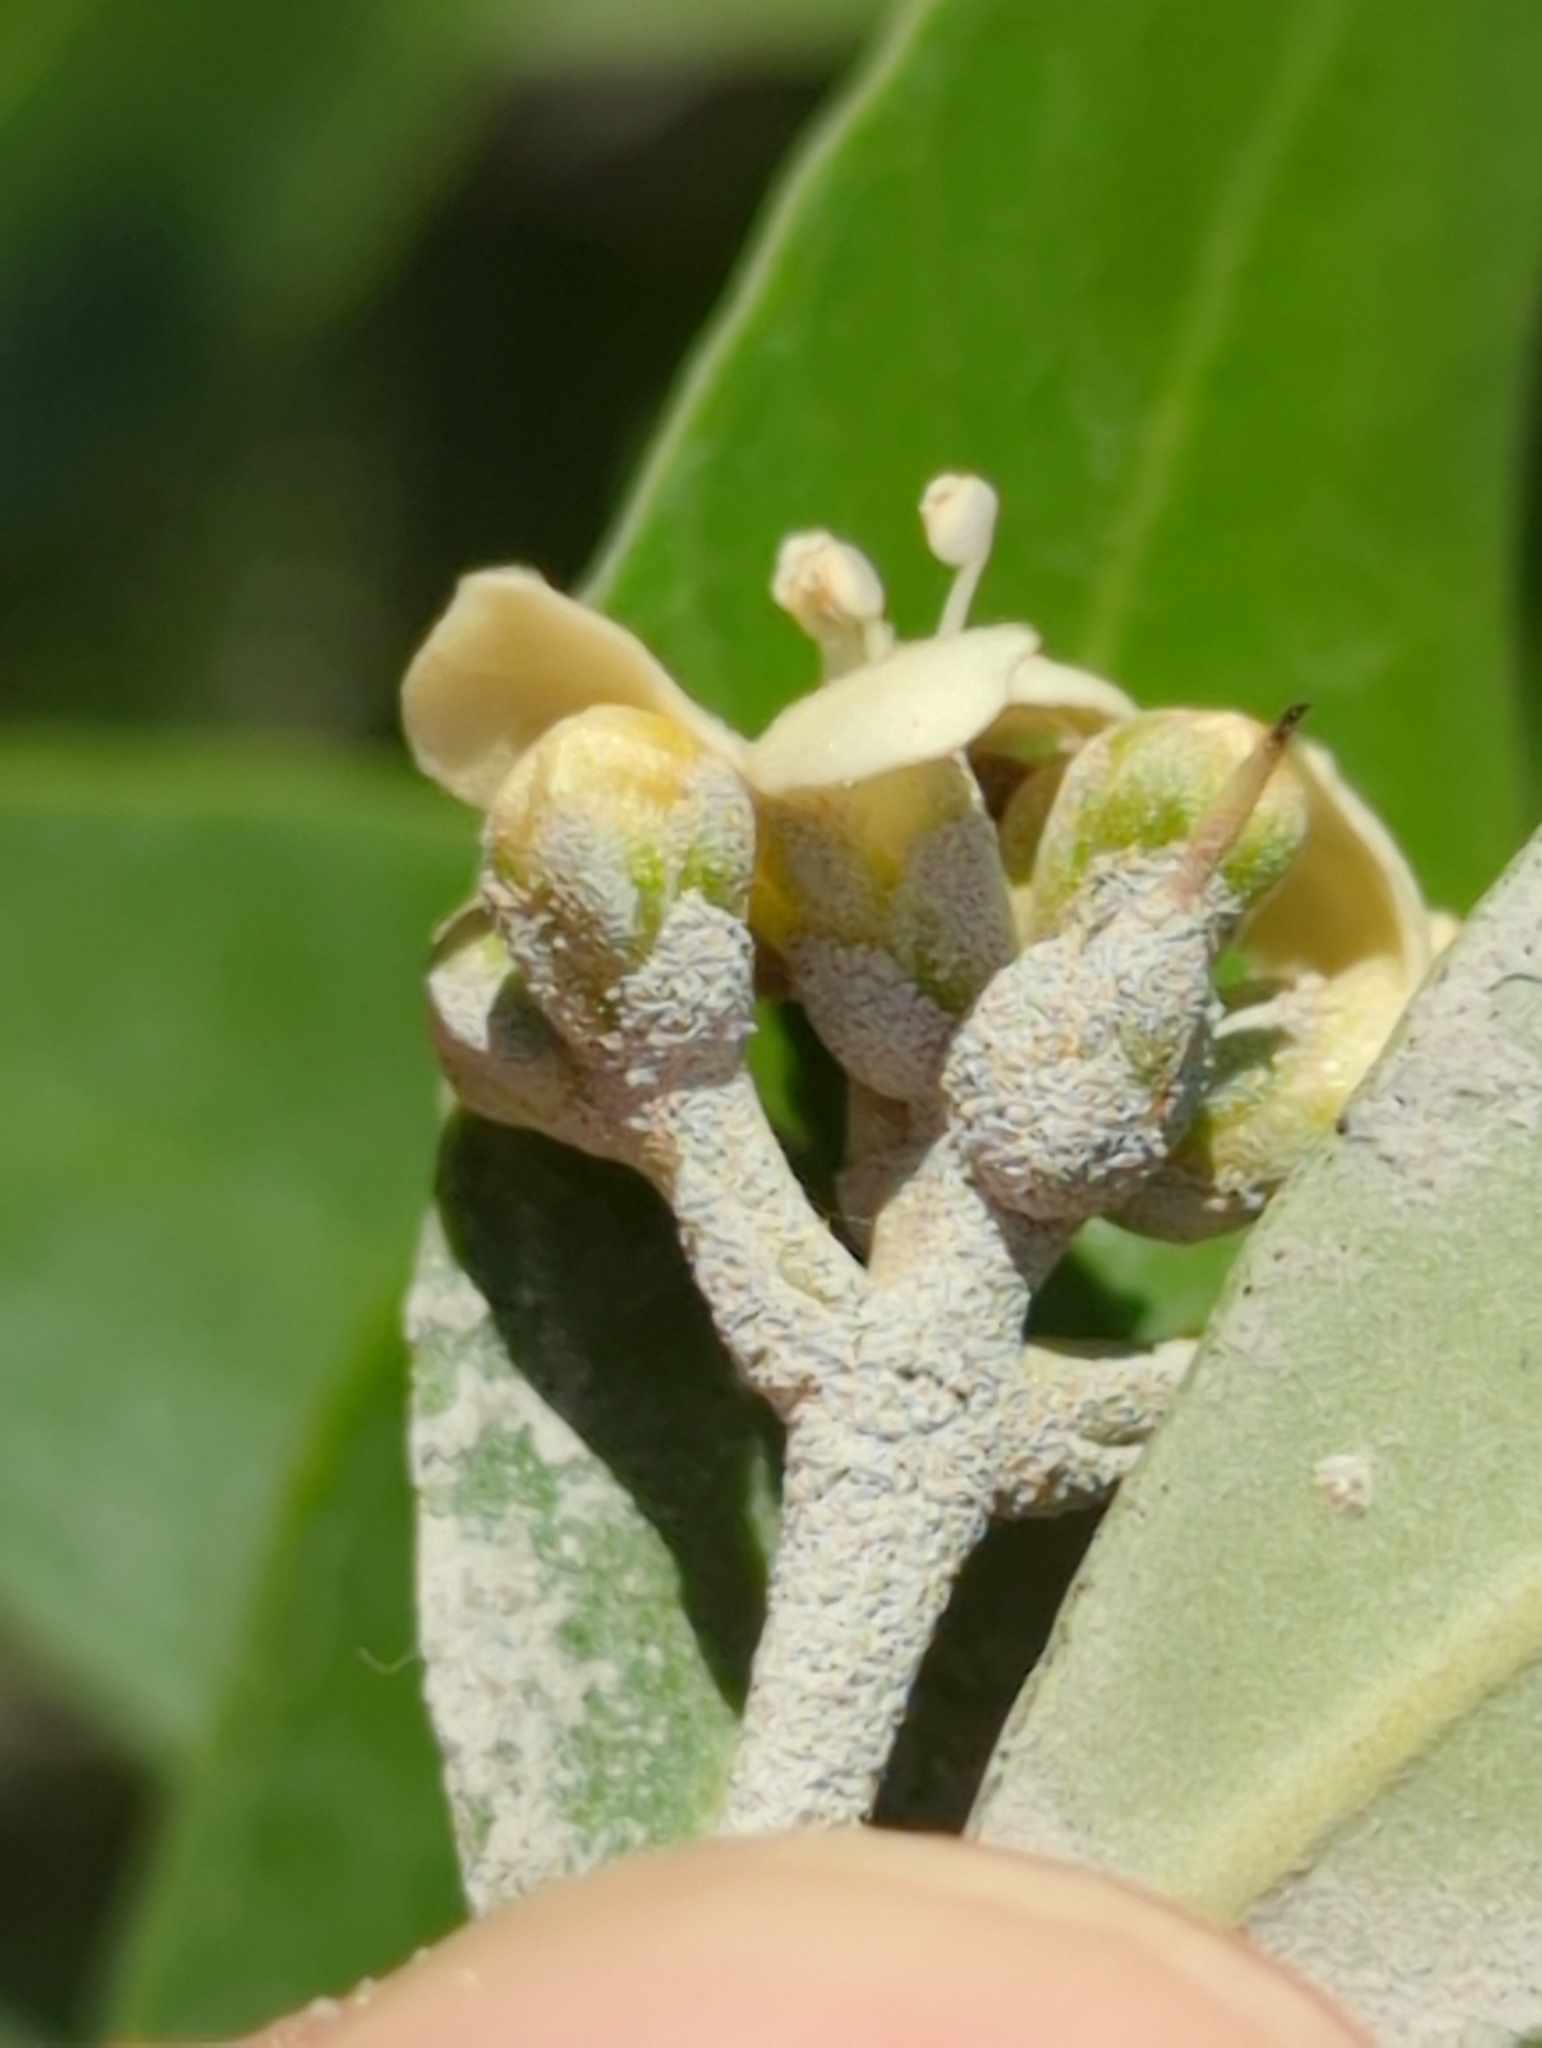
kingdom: Plantae
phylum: Tracheophyta
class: Magnoliopsida
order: Lamiales
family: Acanthaceae
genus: Avicennia
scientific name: Avicennia germinans
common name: Black mangrove
